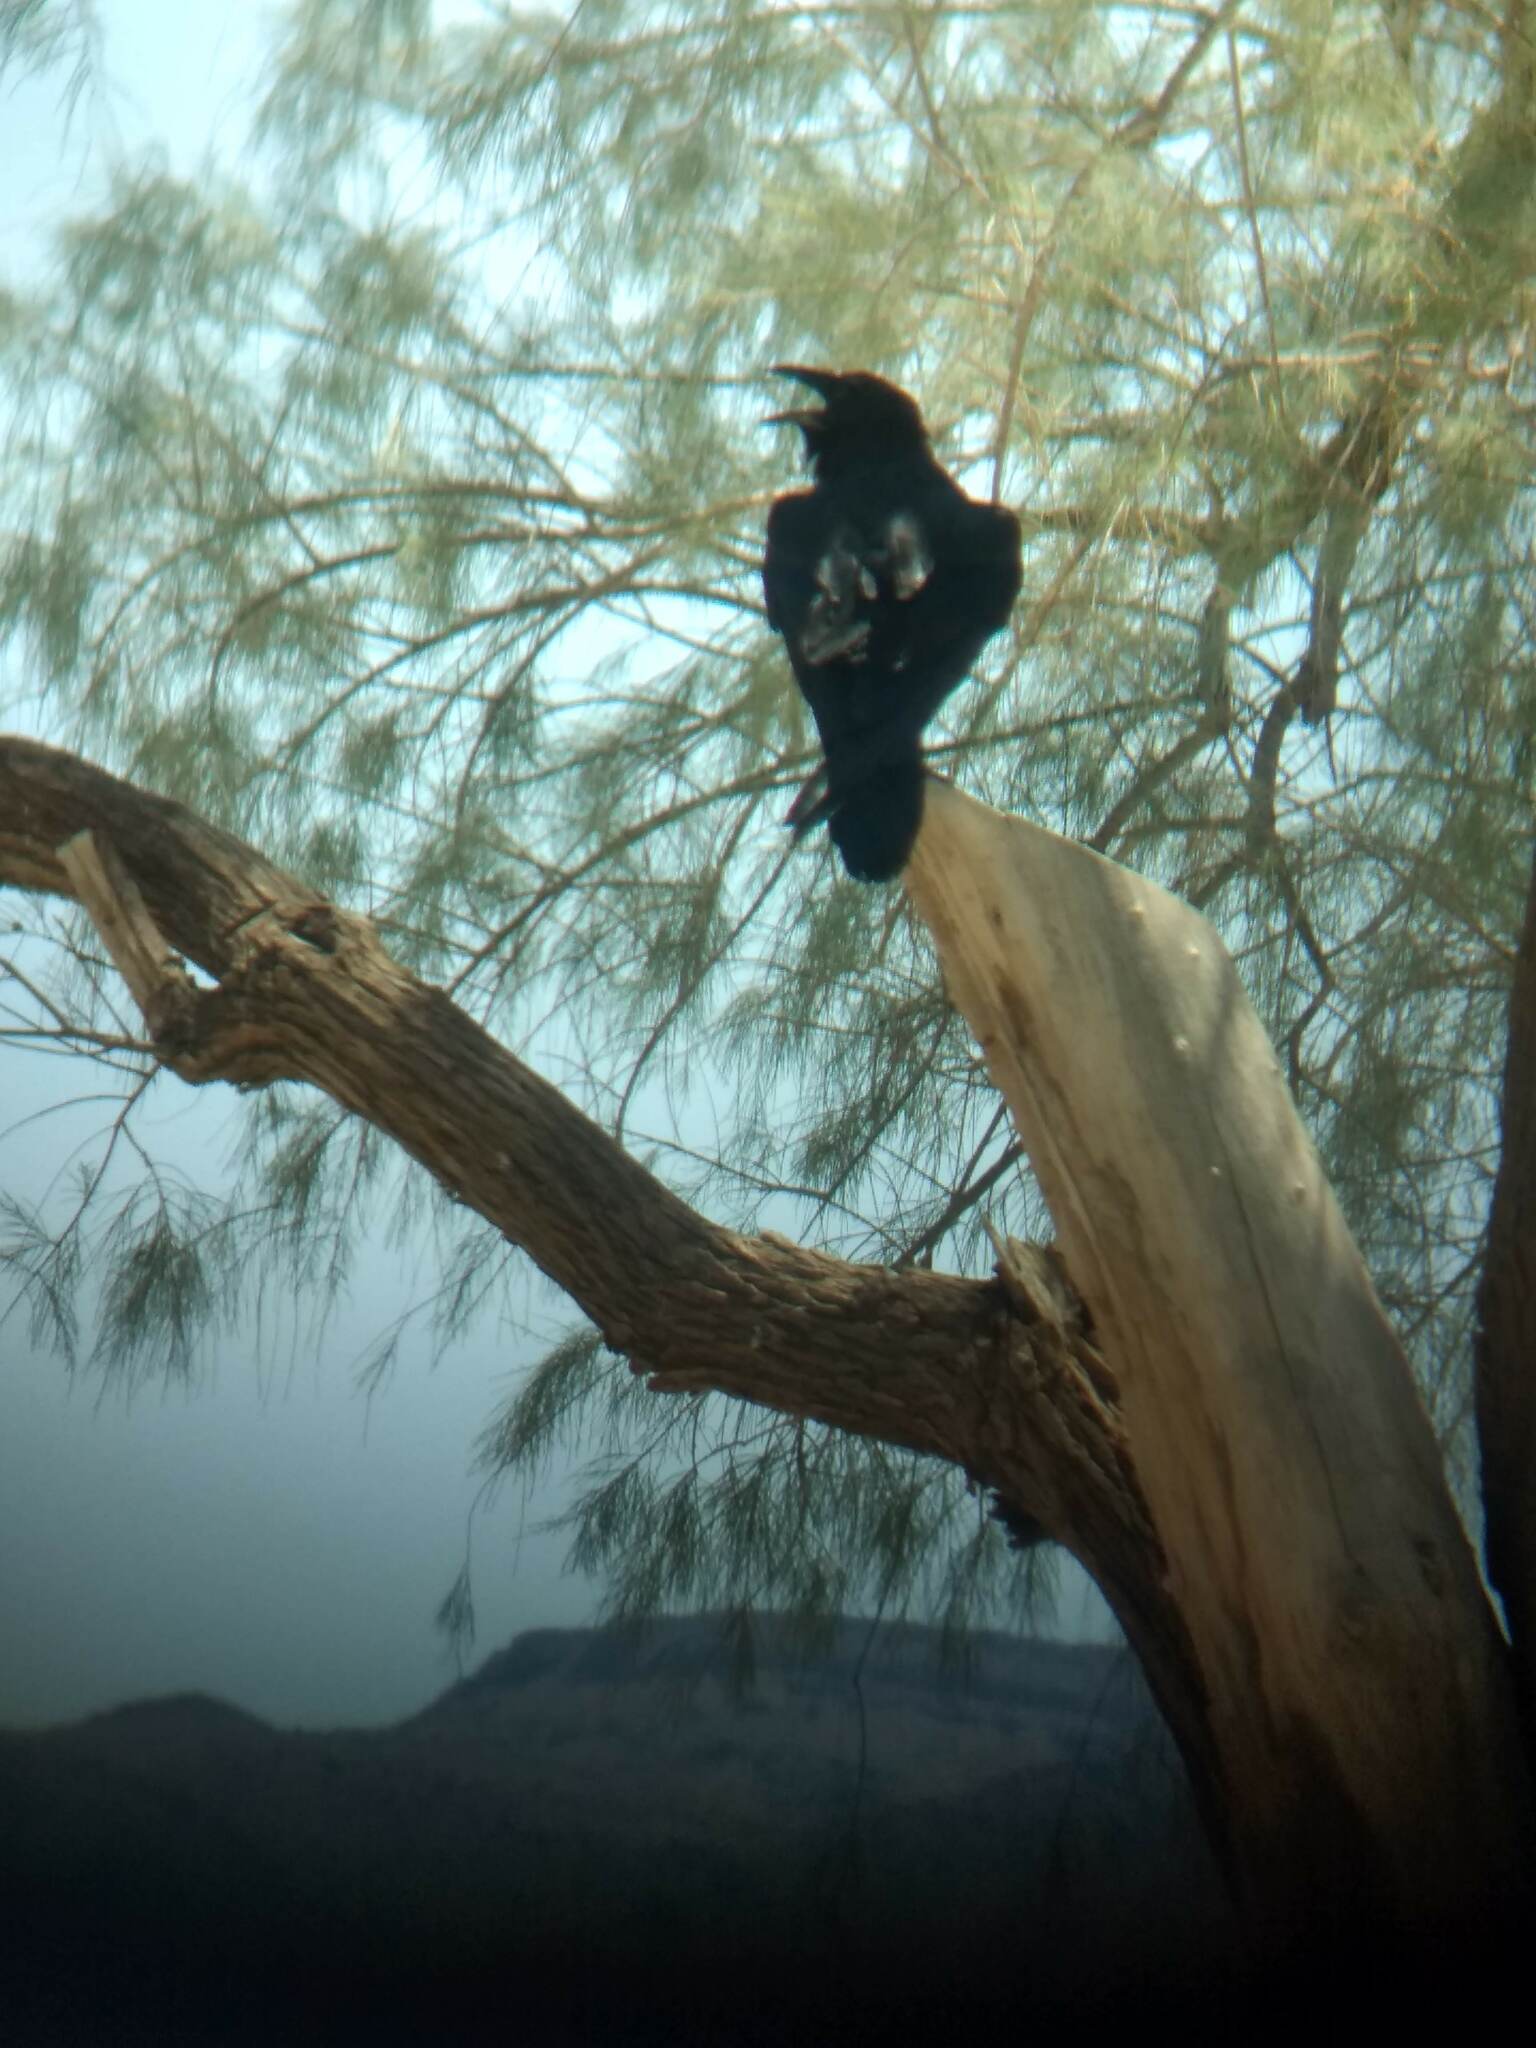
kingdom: Animalia
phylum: Chordata
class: Aves
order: Passeriformes
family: Corvidae
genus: Corvus
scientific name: Corvus corax
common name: Common raven
